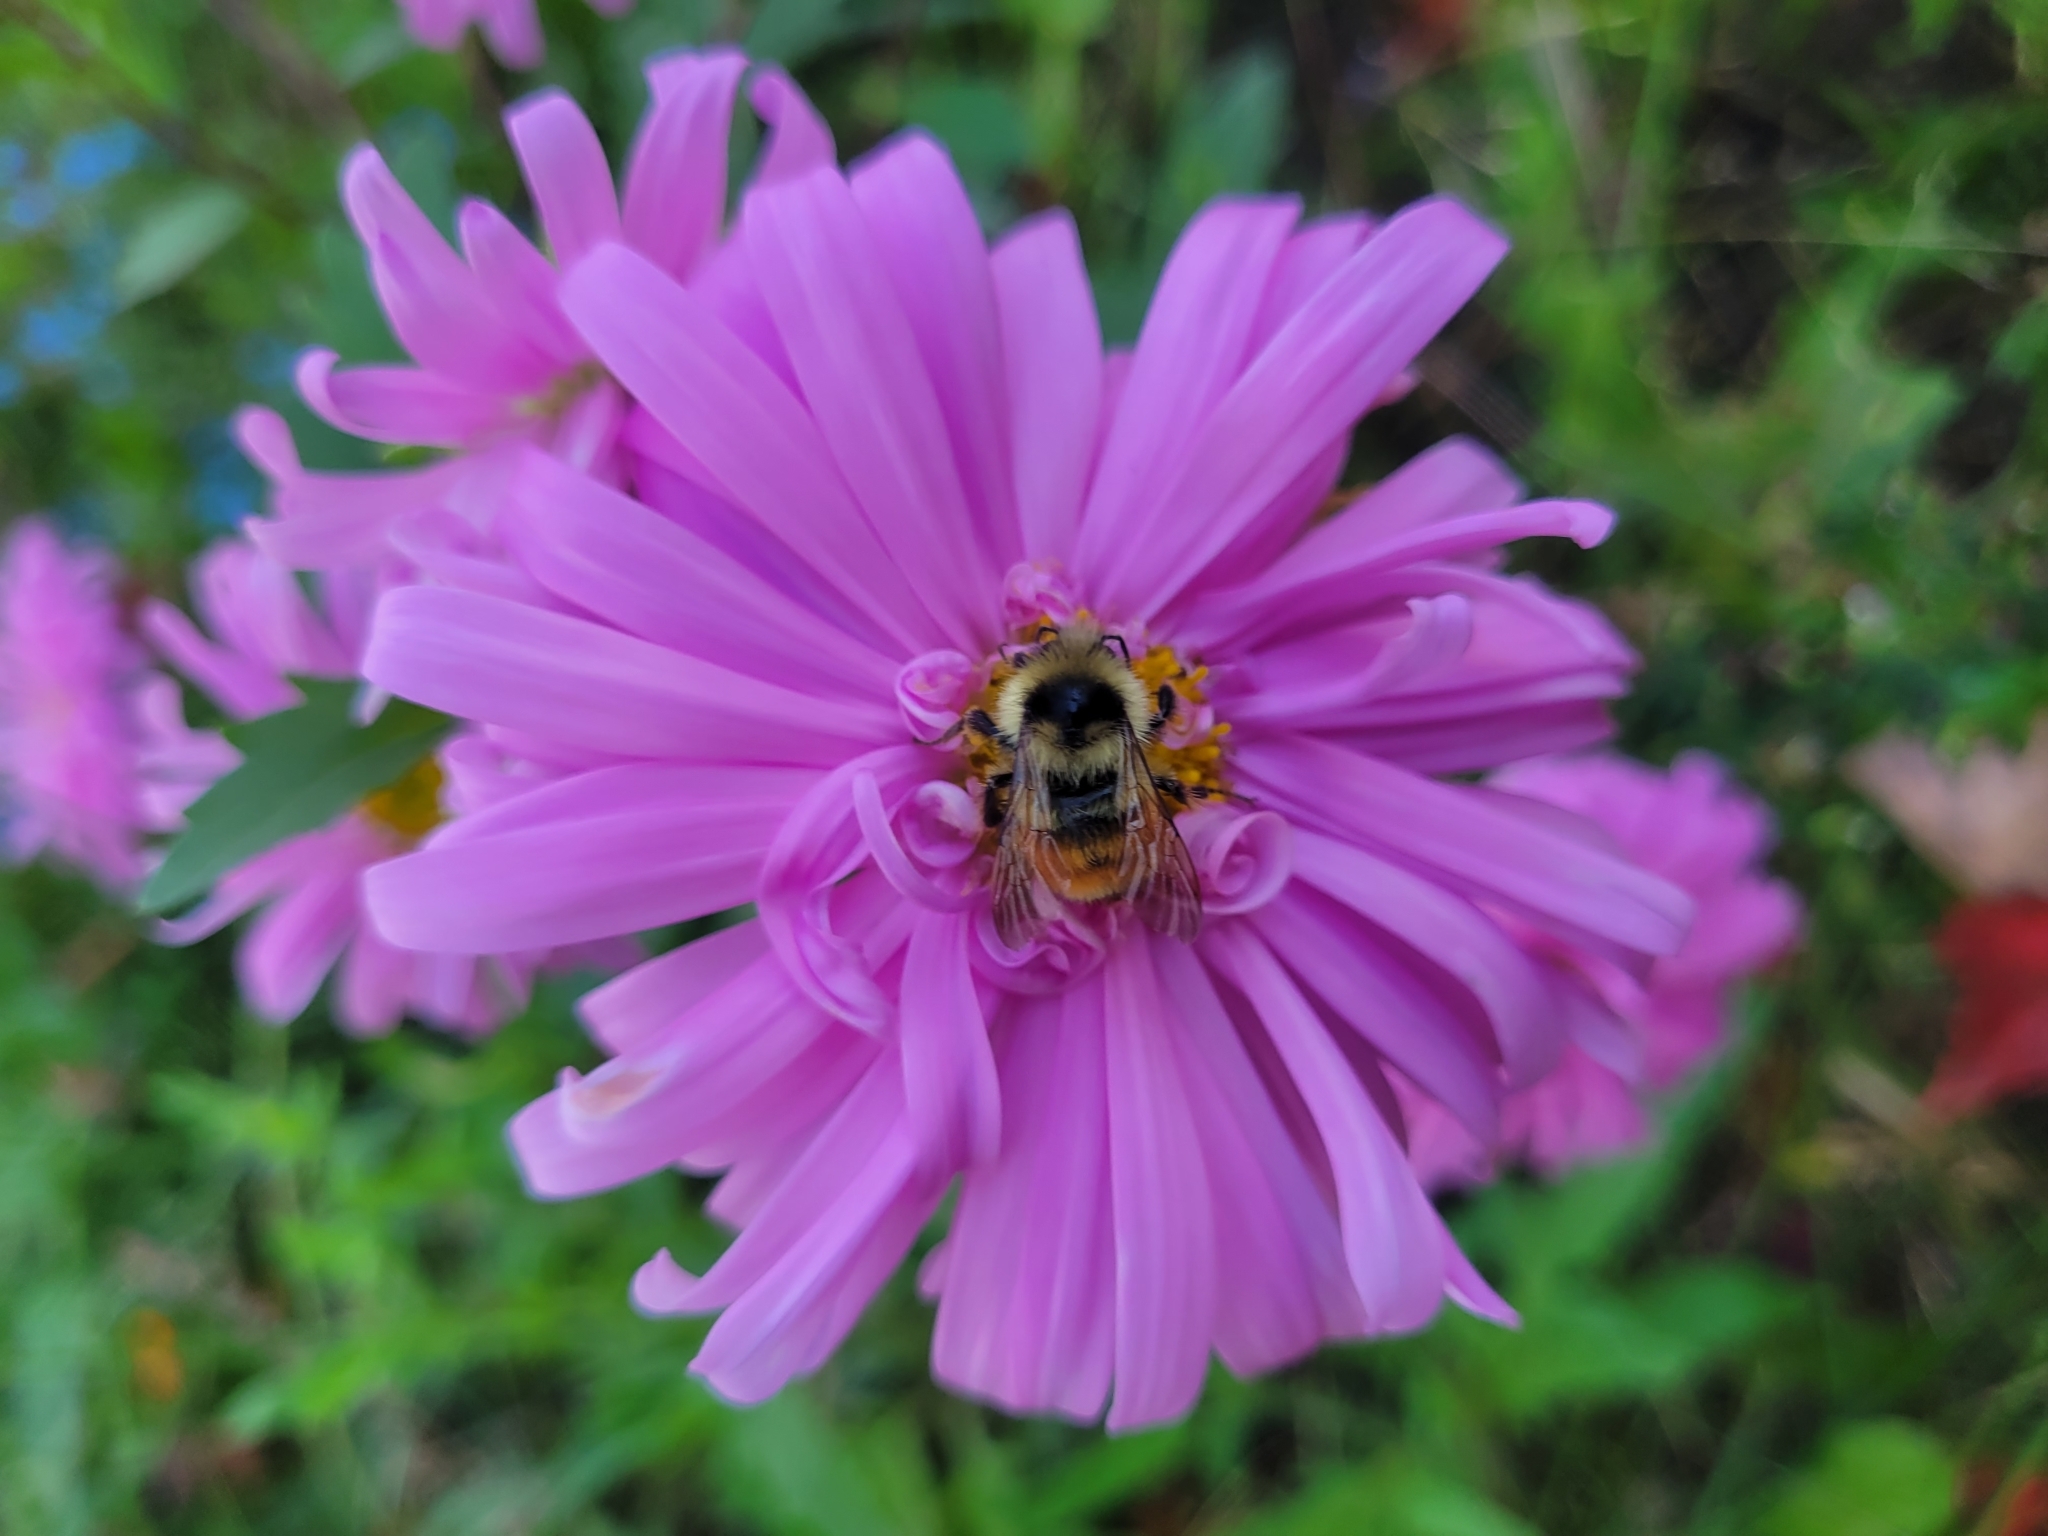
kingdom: Animalia
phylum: Arthropoda
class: Insecta
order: Hymenoptera
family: Apidae
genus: Bombus
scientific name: Bombus ternarius
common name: Tri-colored bumble bee
